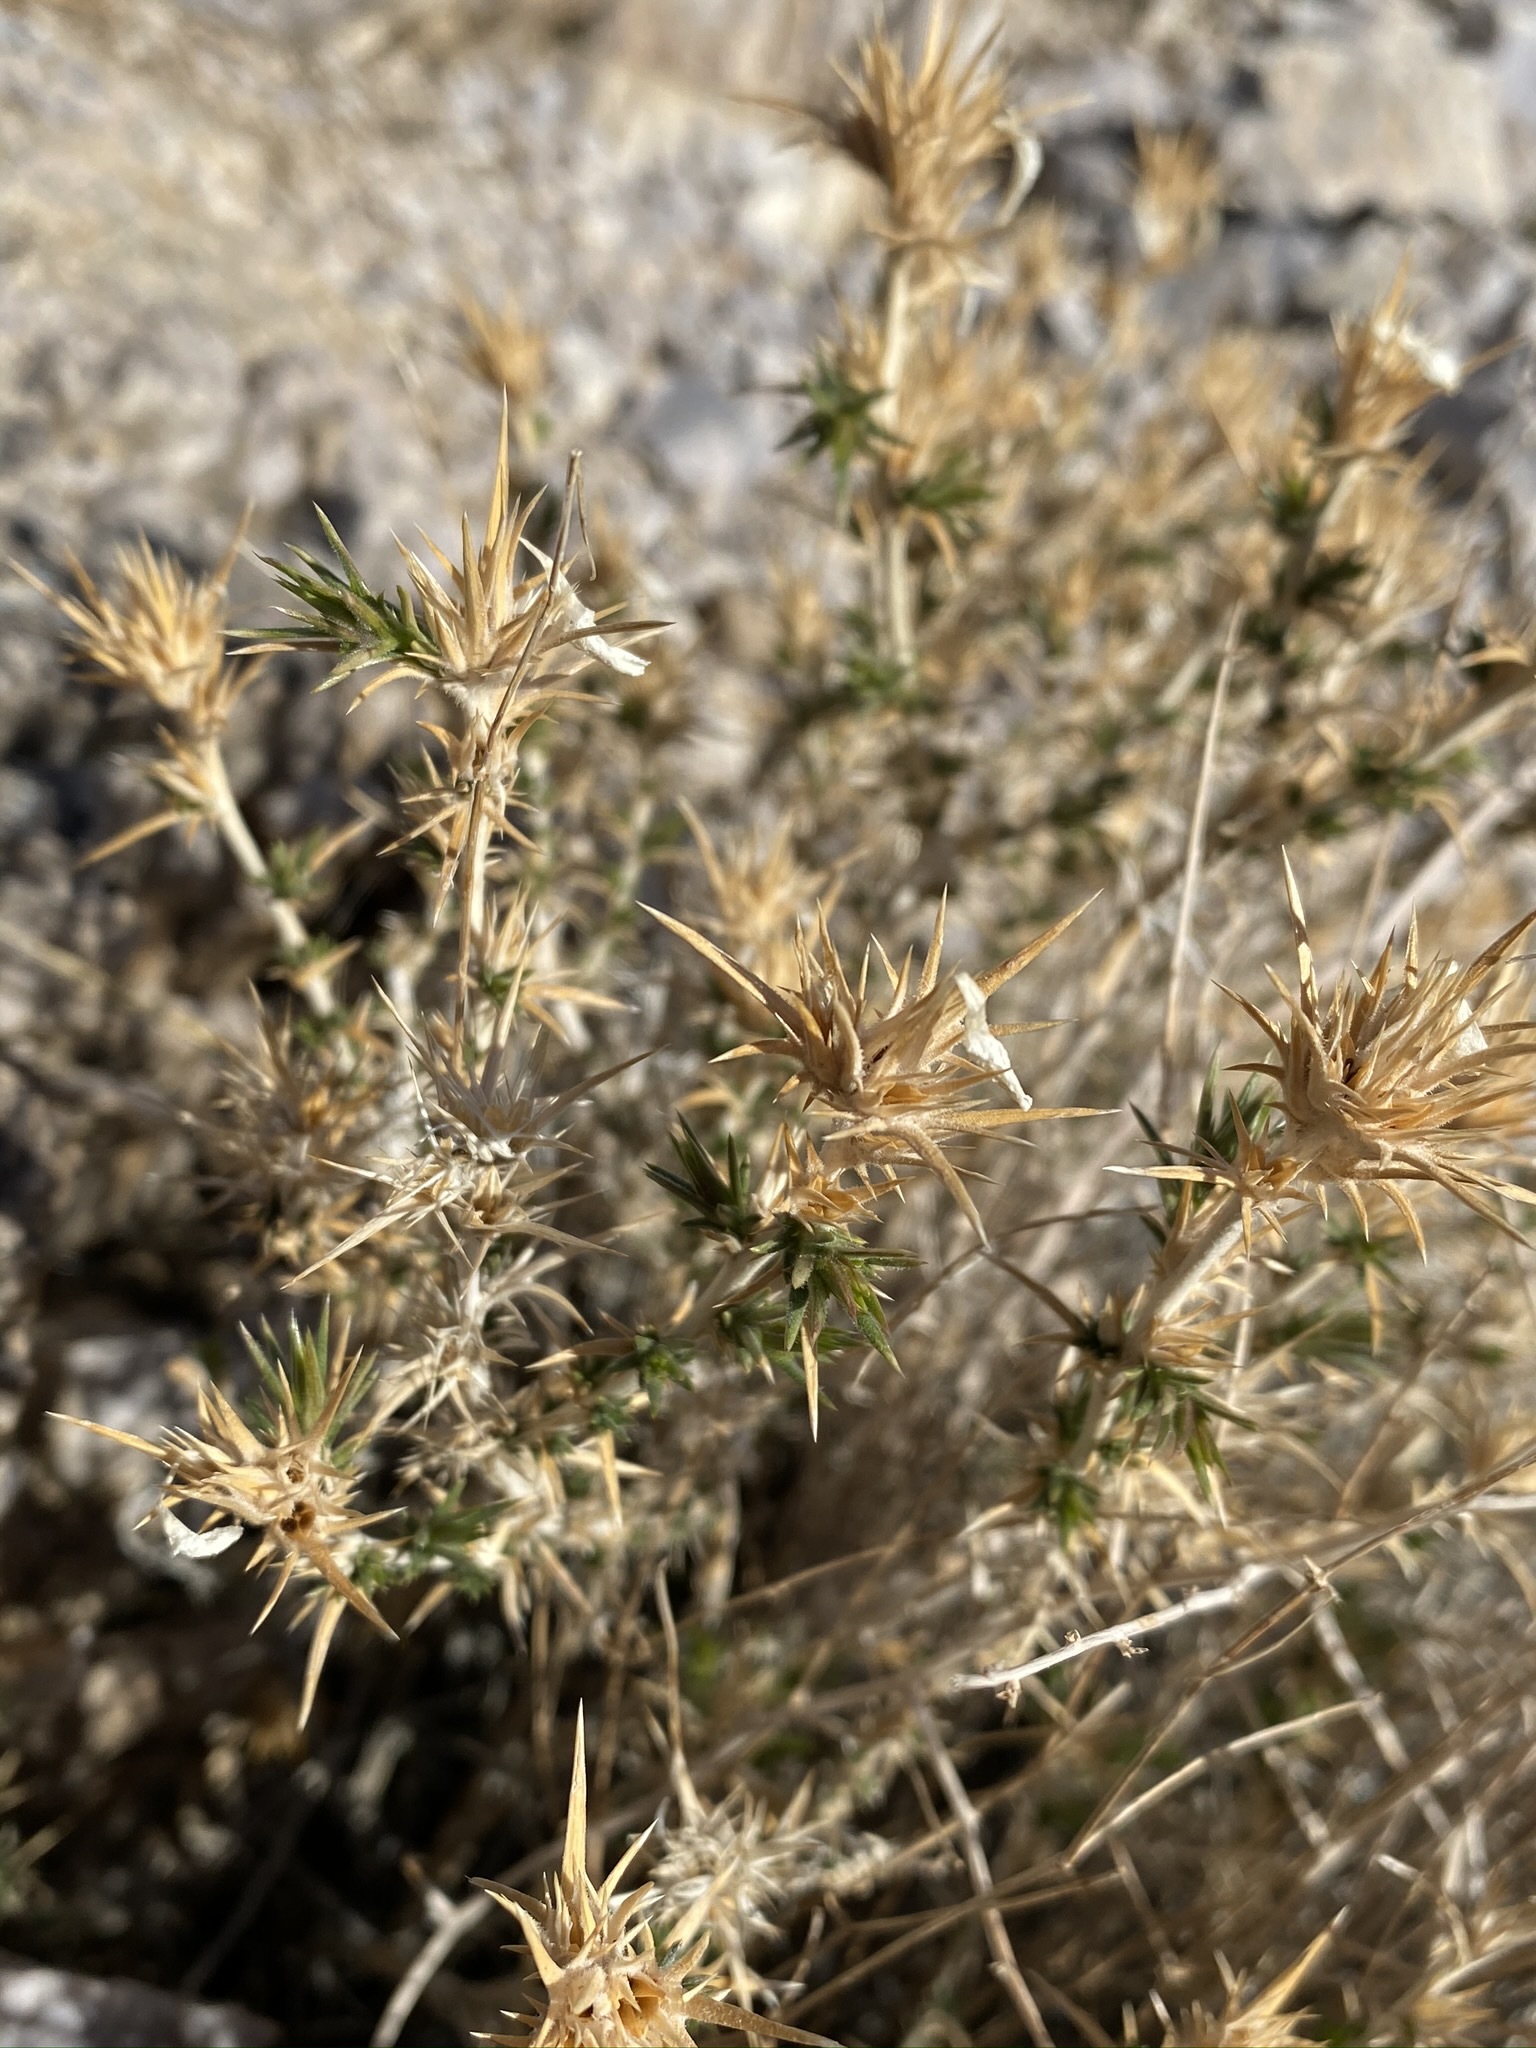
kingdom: Plantae
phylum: Tracheophyta
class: Magnoliopsida
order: Ericales
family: Polemoniaceae
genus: Linanthus
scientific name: Linanthus pungens
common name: Granite prickly phlox
